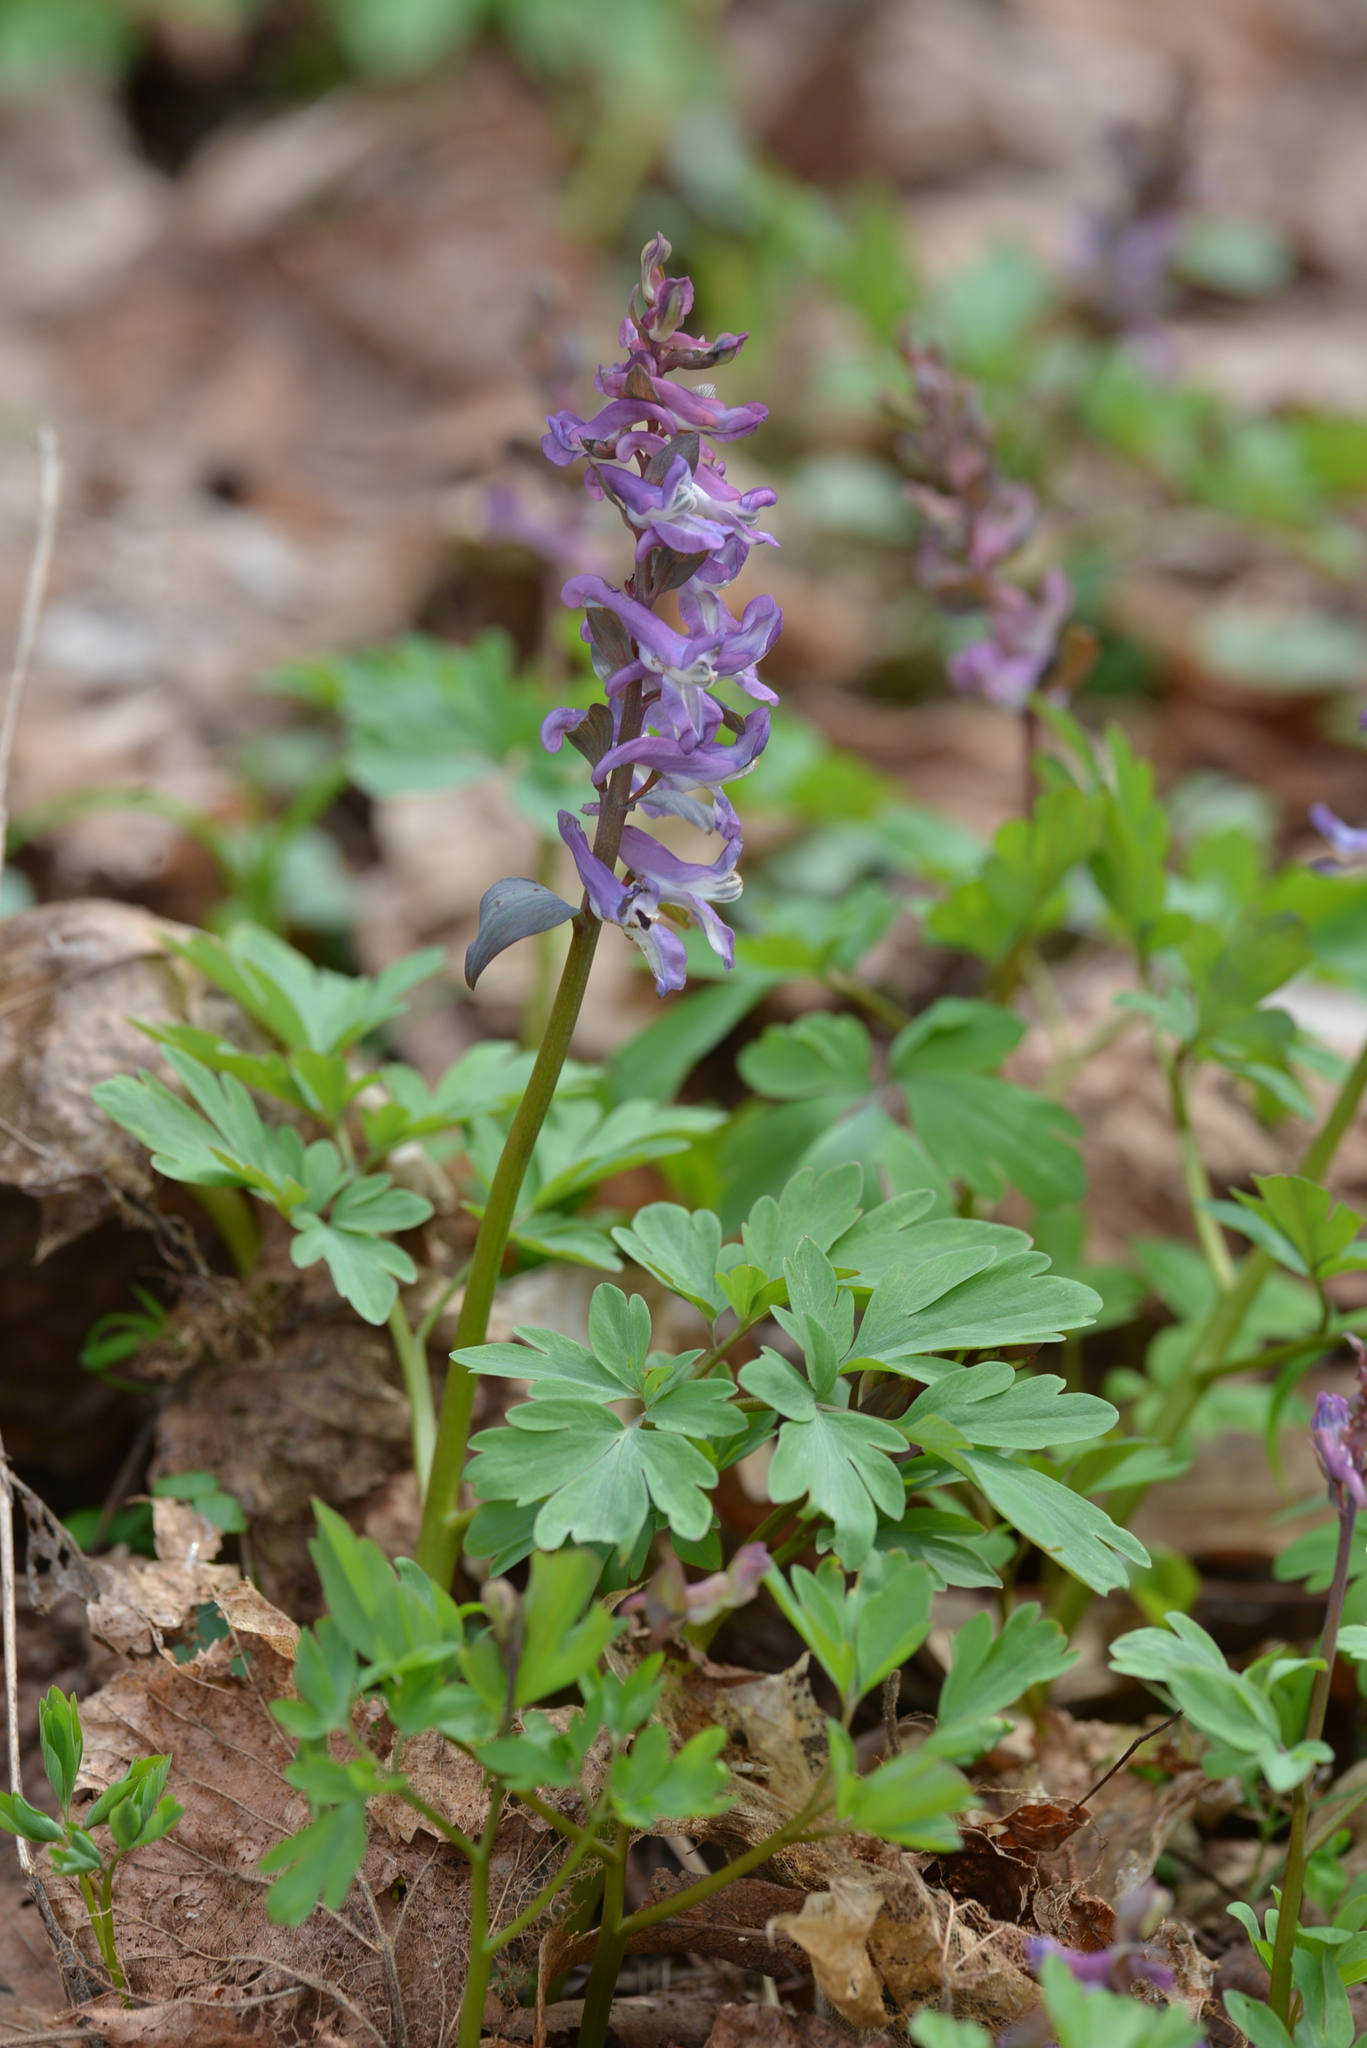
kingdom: Plantae
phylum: Tracheophyta
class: Magnoliopsida
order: Ranunculales
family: Papaveraceae
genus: Corydalis
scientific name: Corydalis cava
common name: Hollowroot
